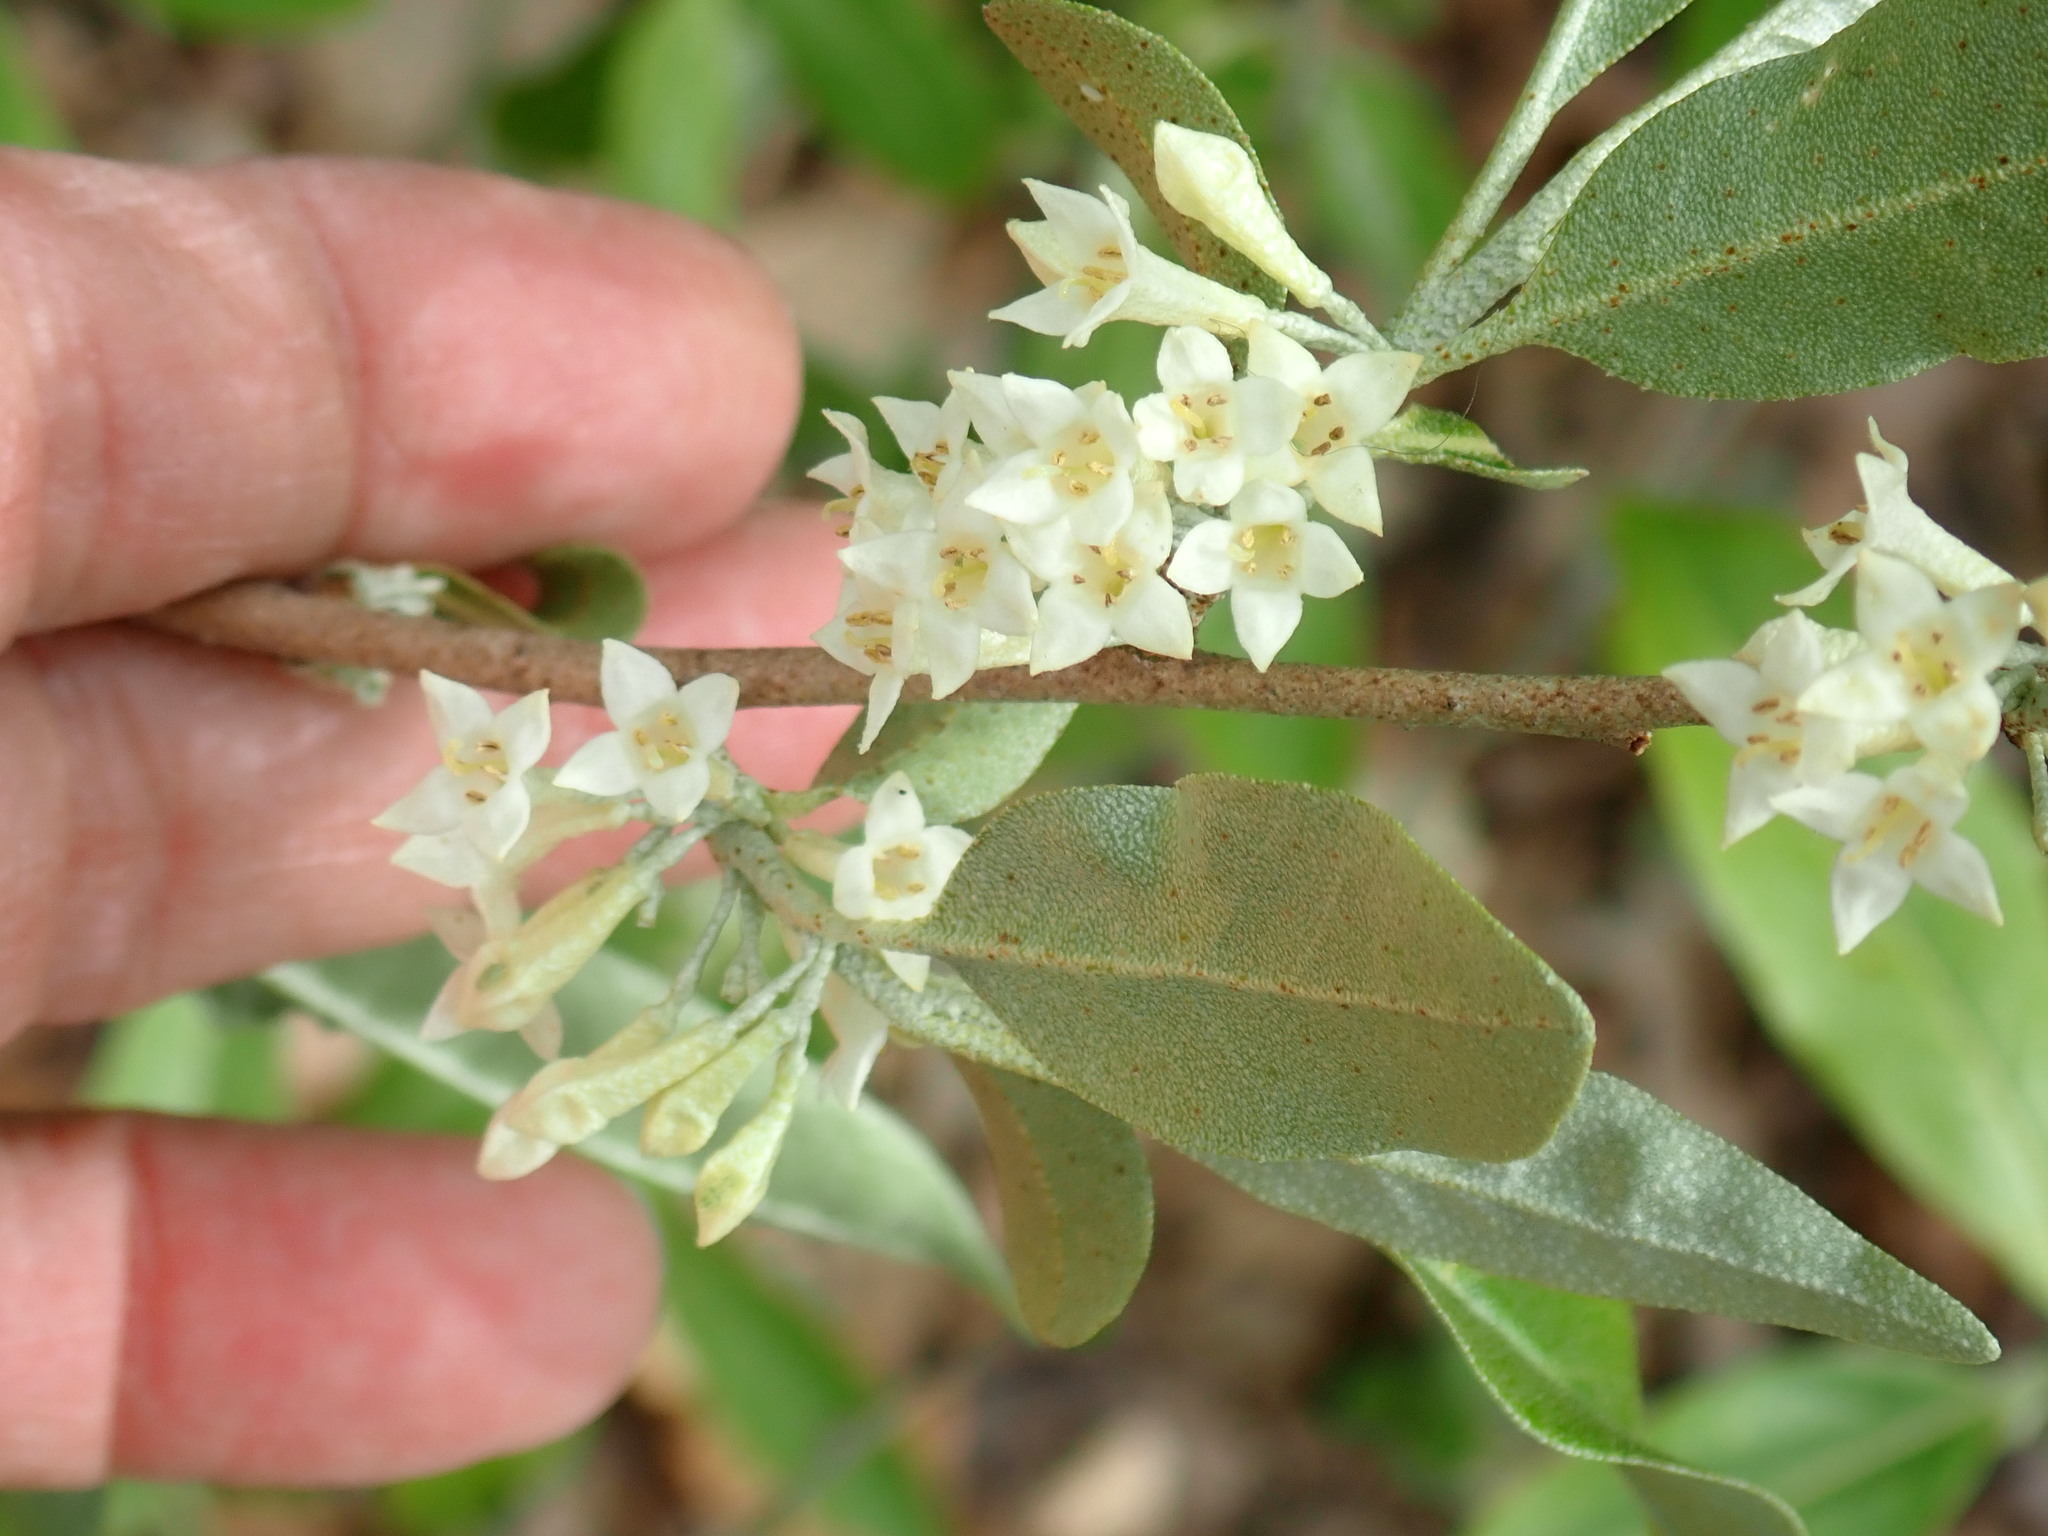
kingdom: Plantae
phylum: Tracheophyta
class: Magnoliopsida
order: Rosales
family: Elaeagnaceae
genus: Elaeagnus
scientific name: Elaeagnus umbellata
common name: Autumn olive
